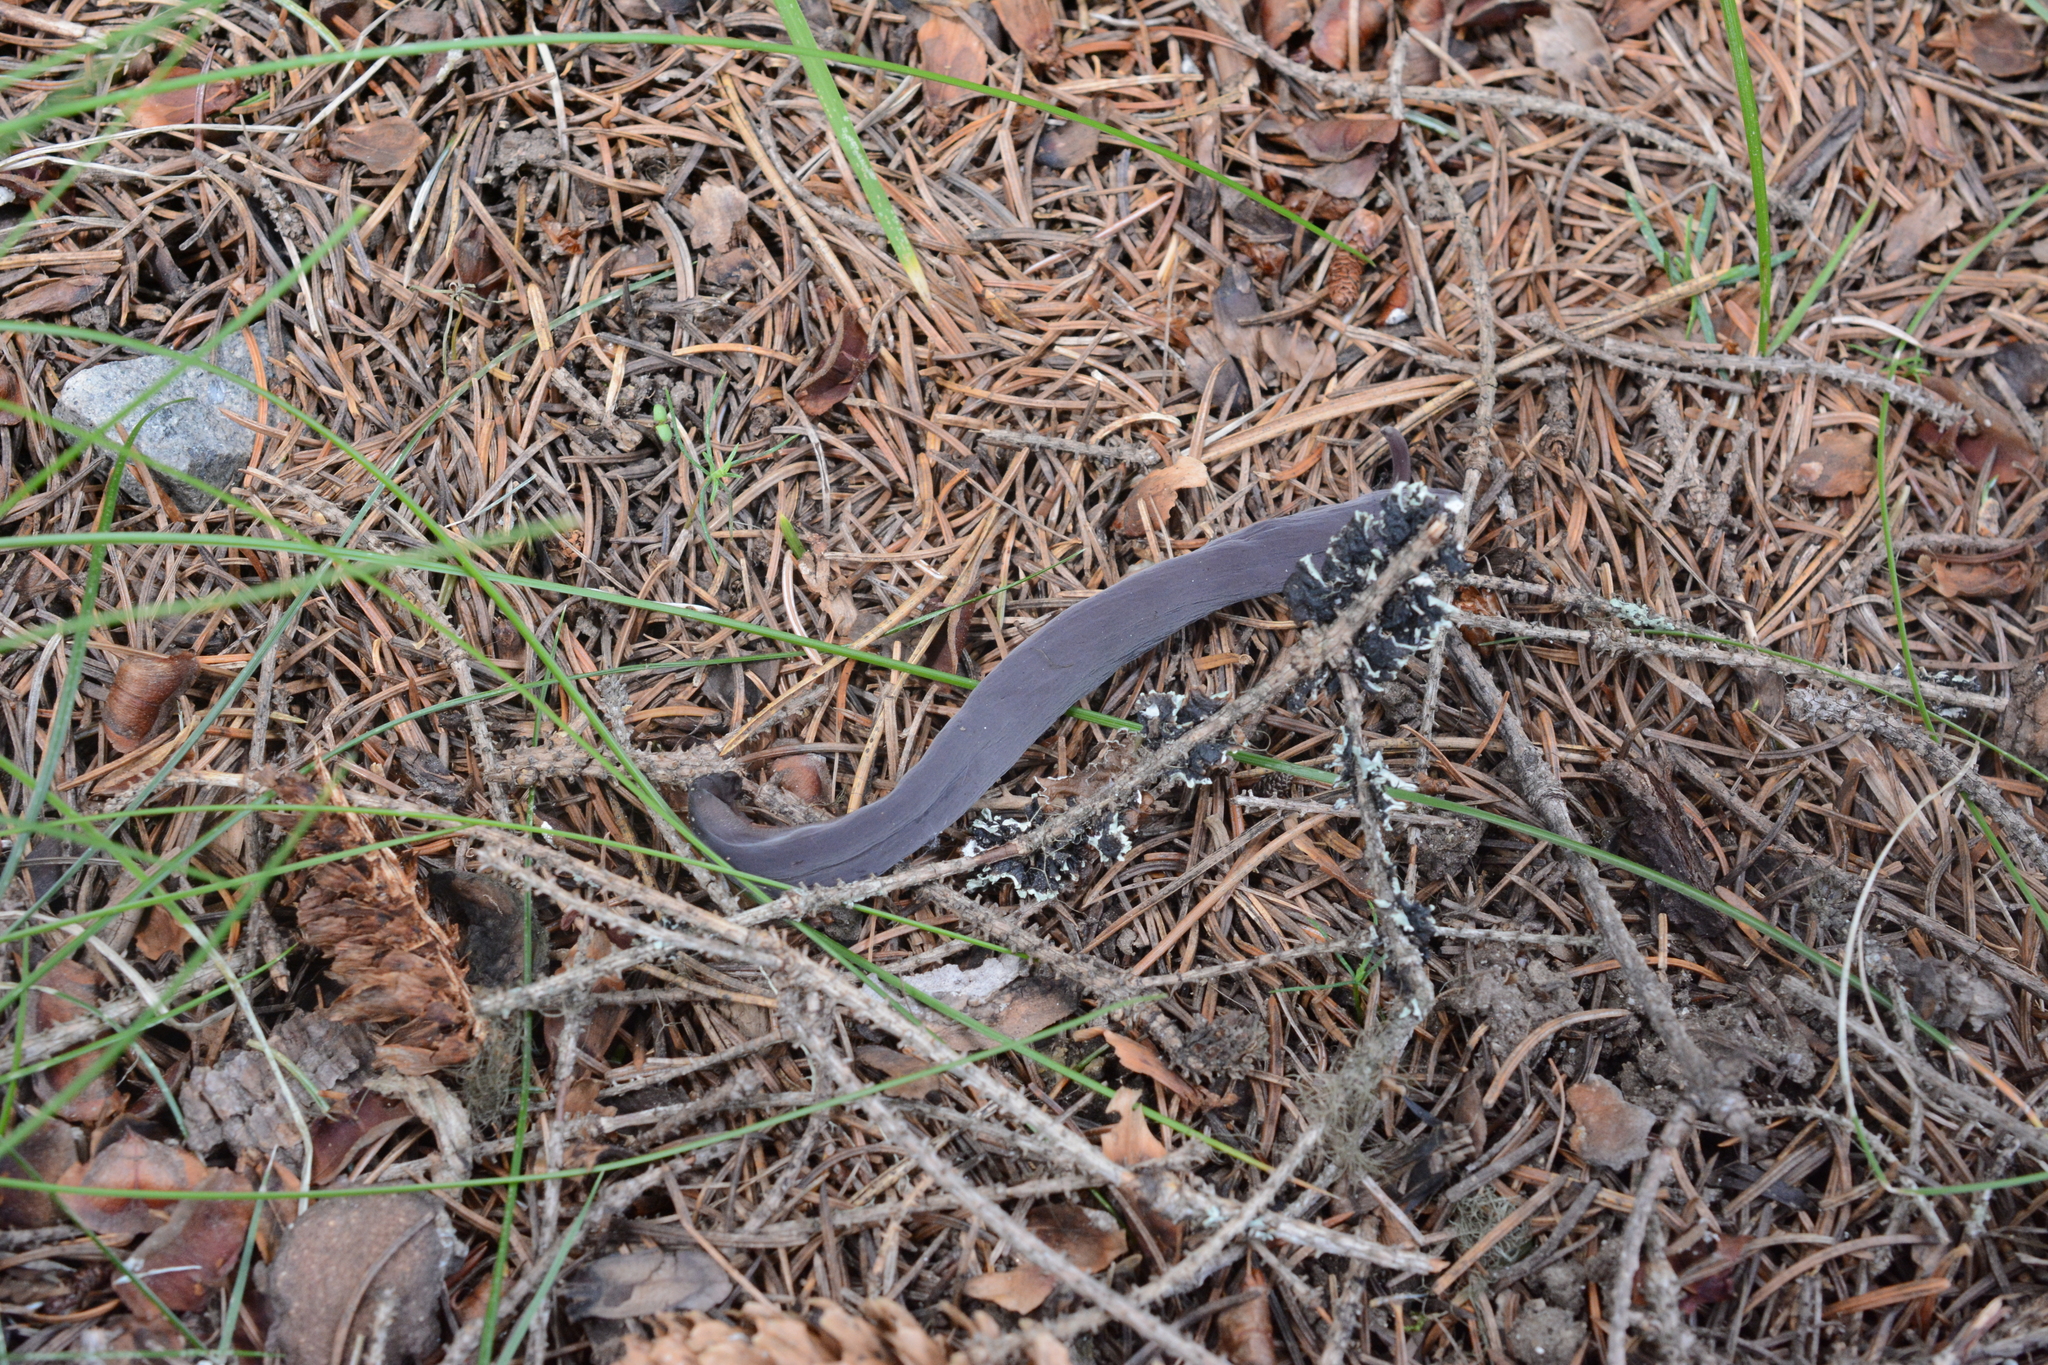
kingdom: Fungi
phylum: Basidiomycota
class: Agaricomycetes
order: Hymenochaetales
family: Rickenellaceae
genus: Alloclavaria
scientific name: Alloclavaria purpurea
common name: Purple spindles
